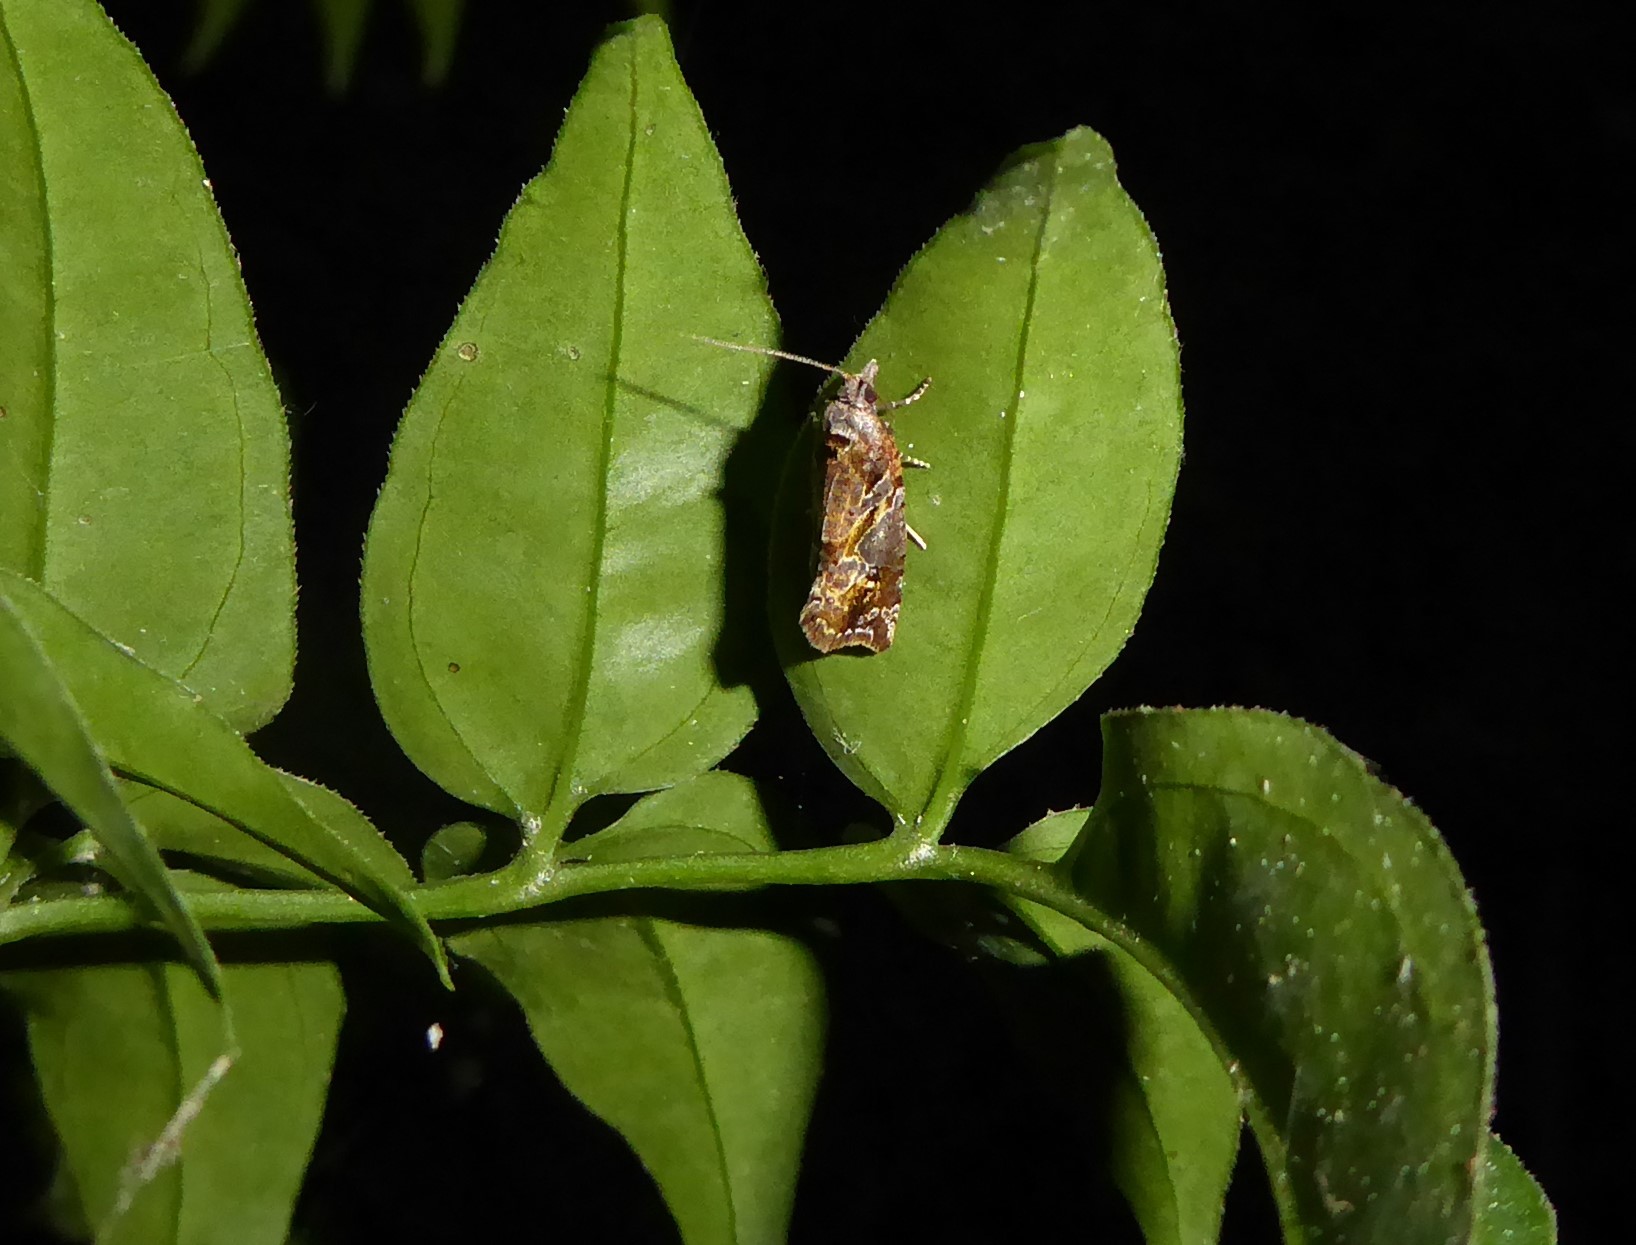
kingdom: Animalia
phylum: Arthropoda
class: Insecta
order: Lepidoptera
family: Tortricidae
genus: Pyrgotis
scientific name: Pyrgotis plagiatana
